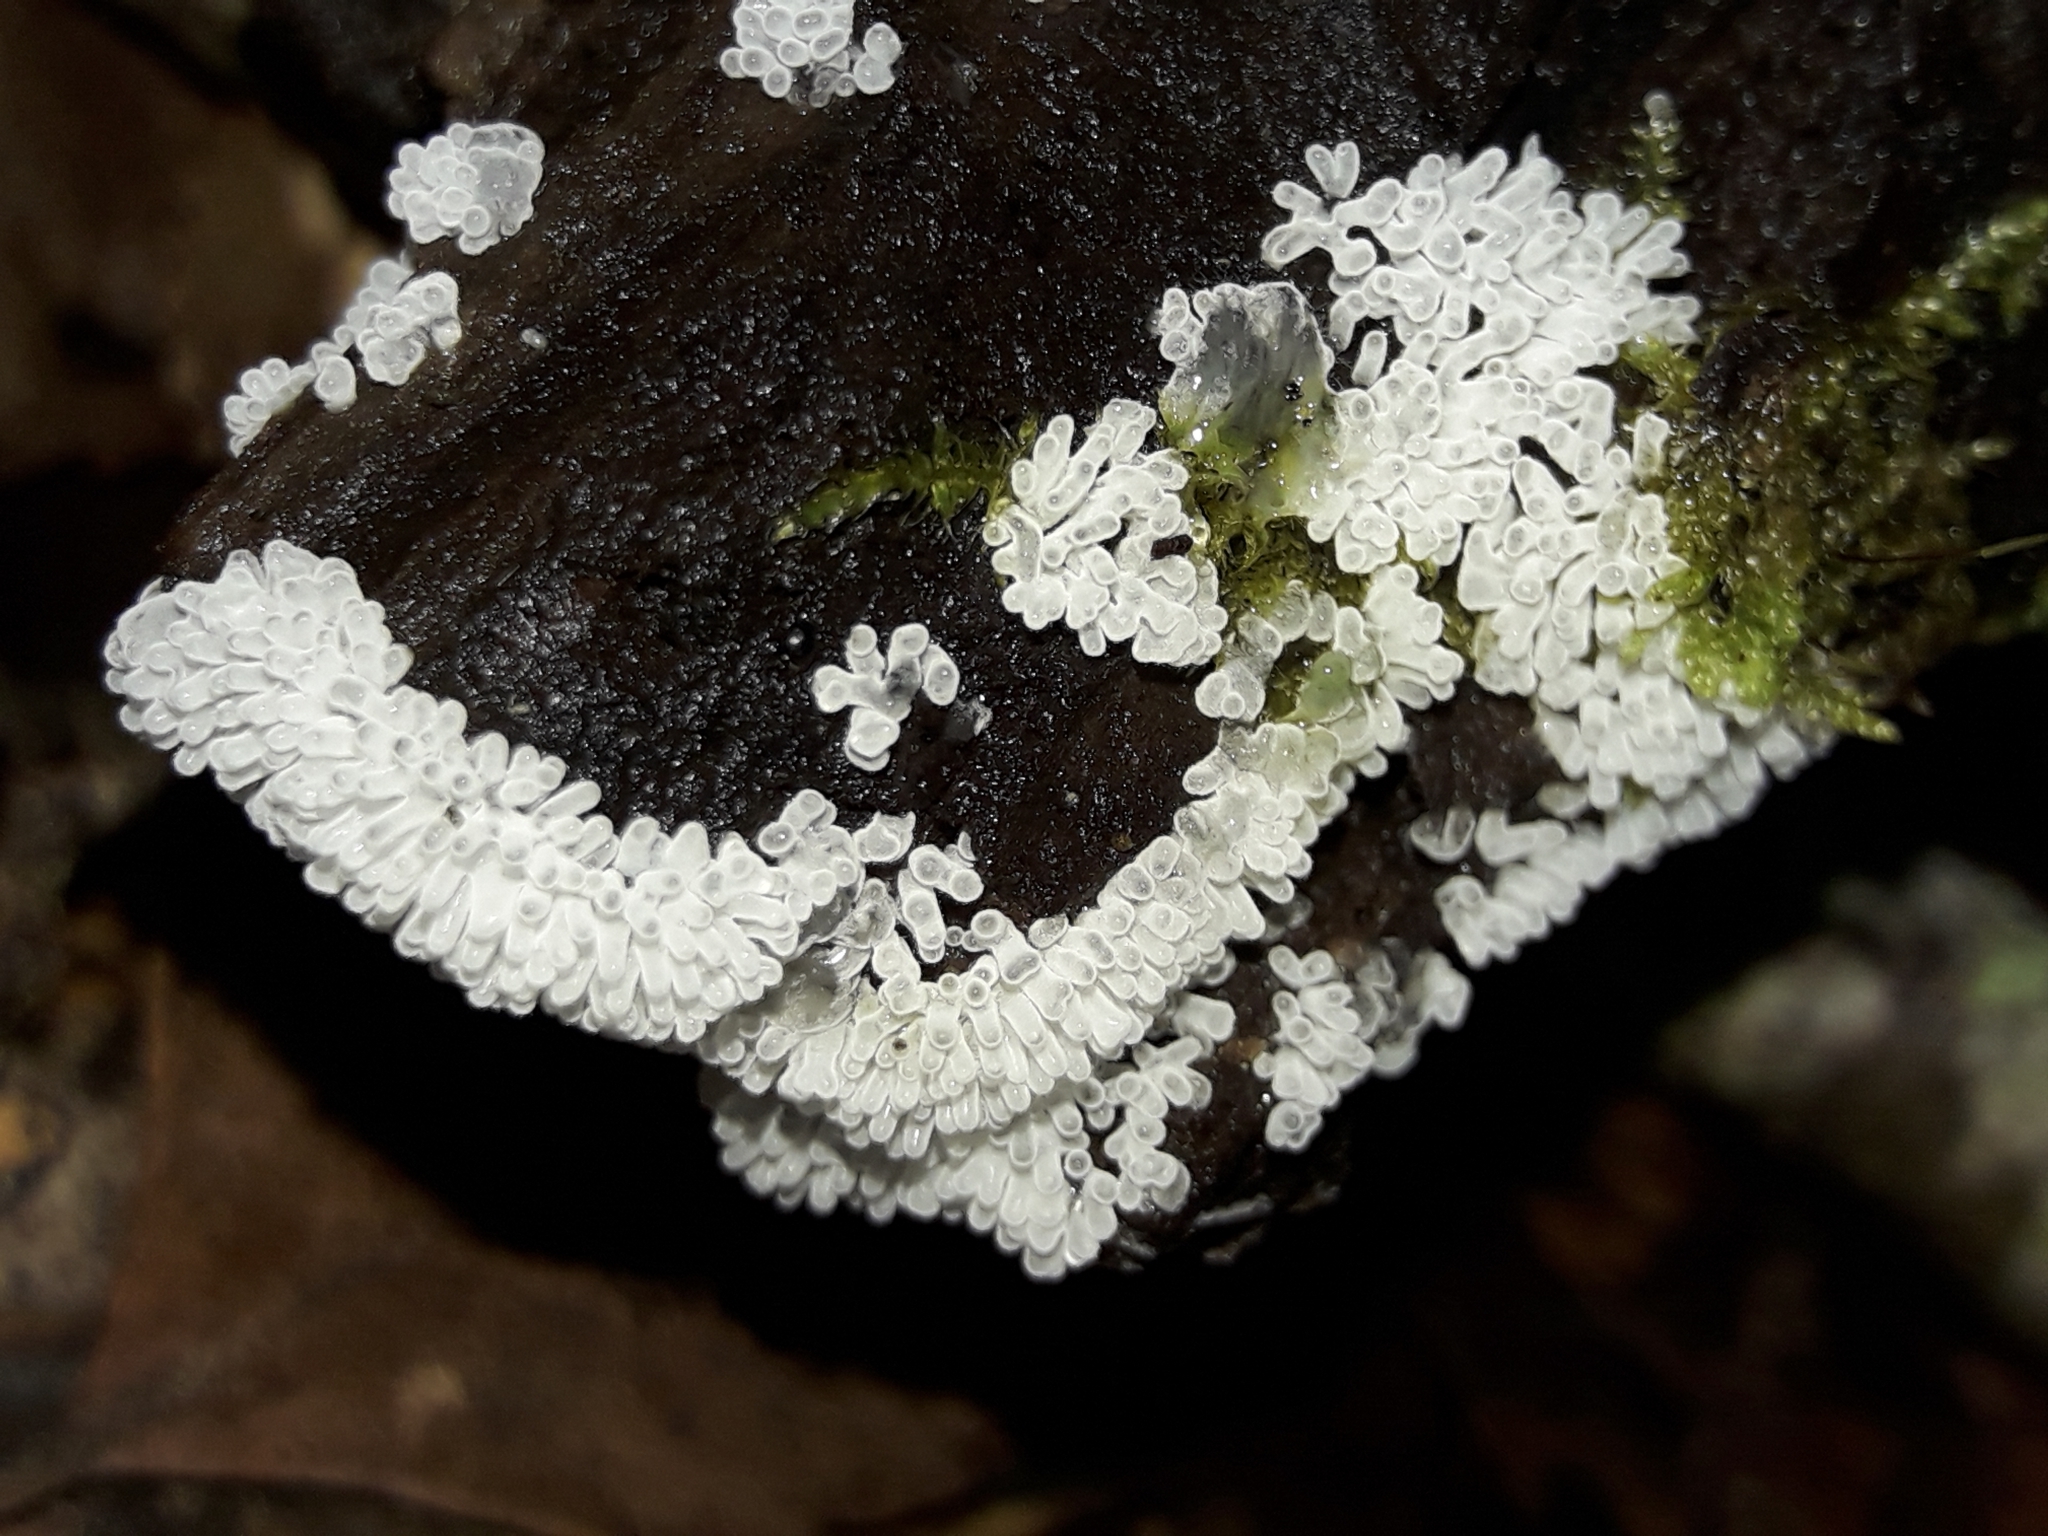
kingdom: Protozoa
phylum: Mycetozoa
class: Protosteliomycetes
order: Ceratiomyxales
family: Ceratiomyxaceae
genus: Ceratiomyxa
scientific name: Ceratiomyxa fruticulosa
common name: Honeycomb coral slime mold
